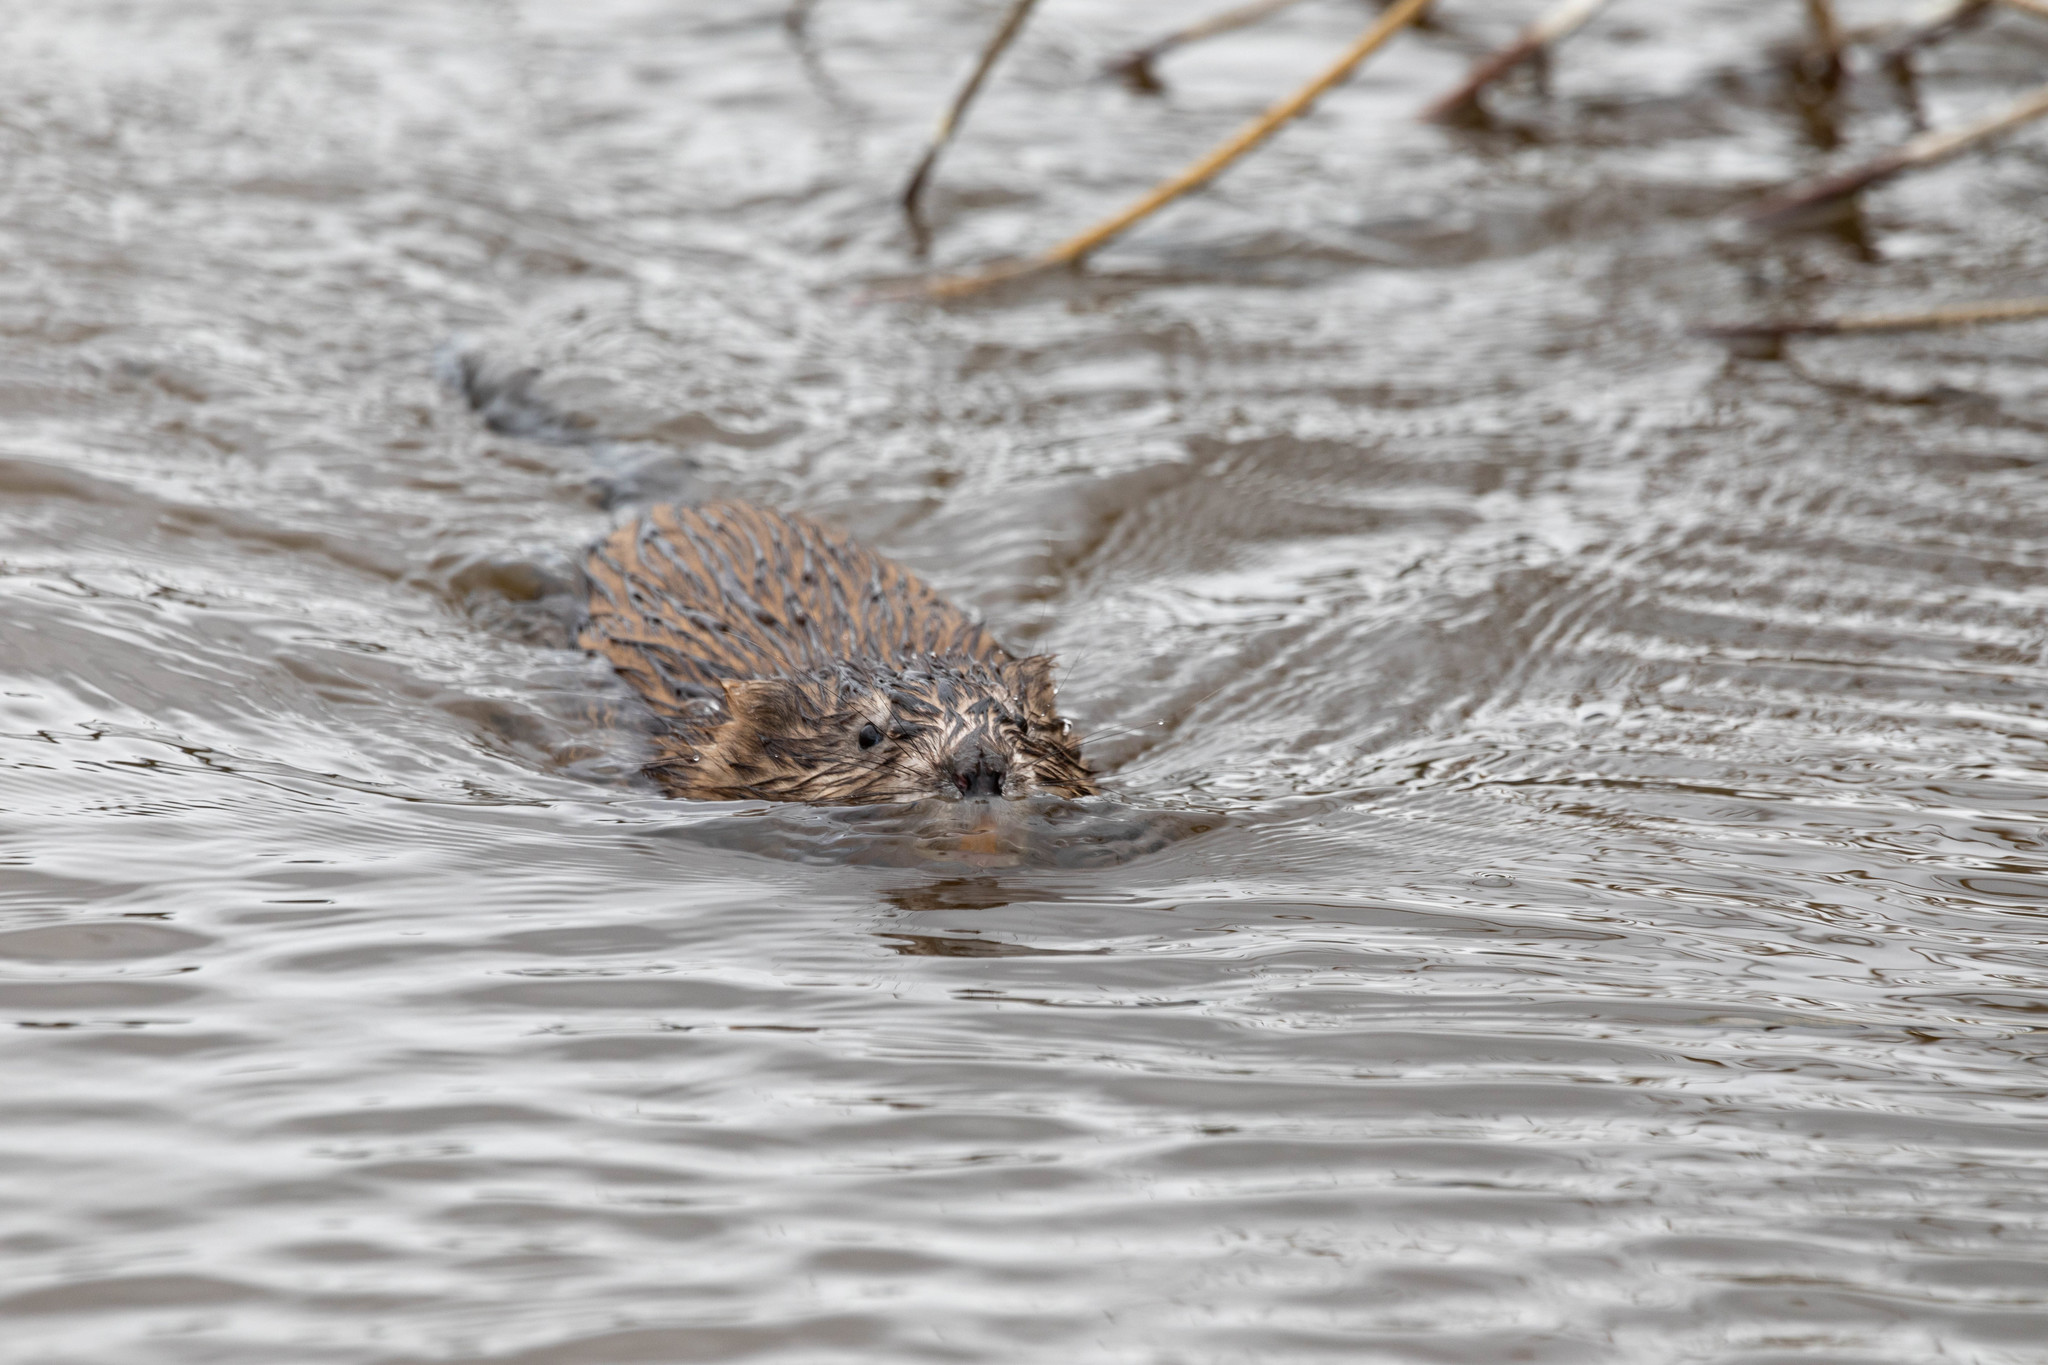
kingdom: Animalia
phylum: Chordata
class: Mammalia
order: Rodentia
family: Cricetidae
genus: Ondatra
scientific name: Ondatra zibethicus
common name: Muskrat
